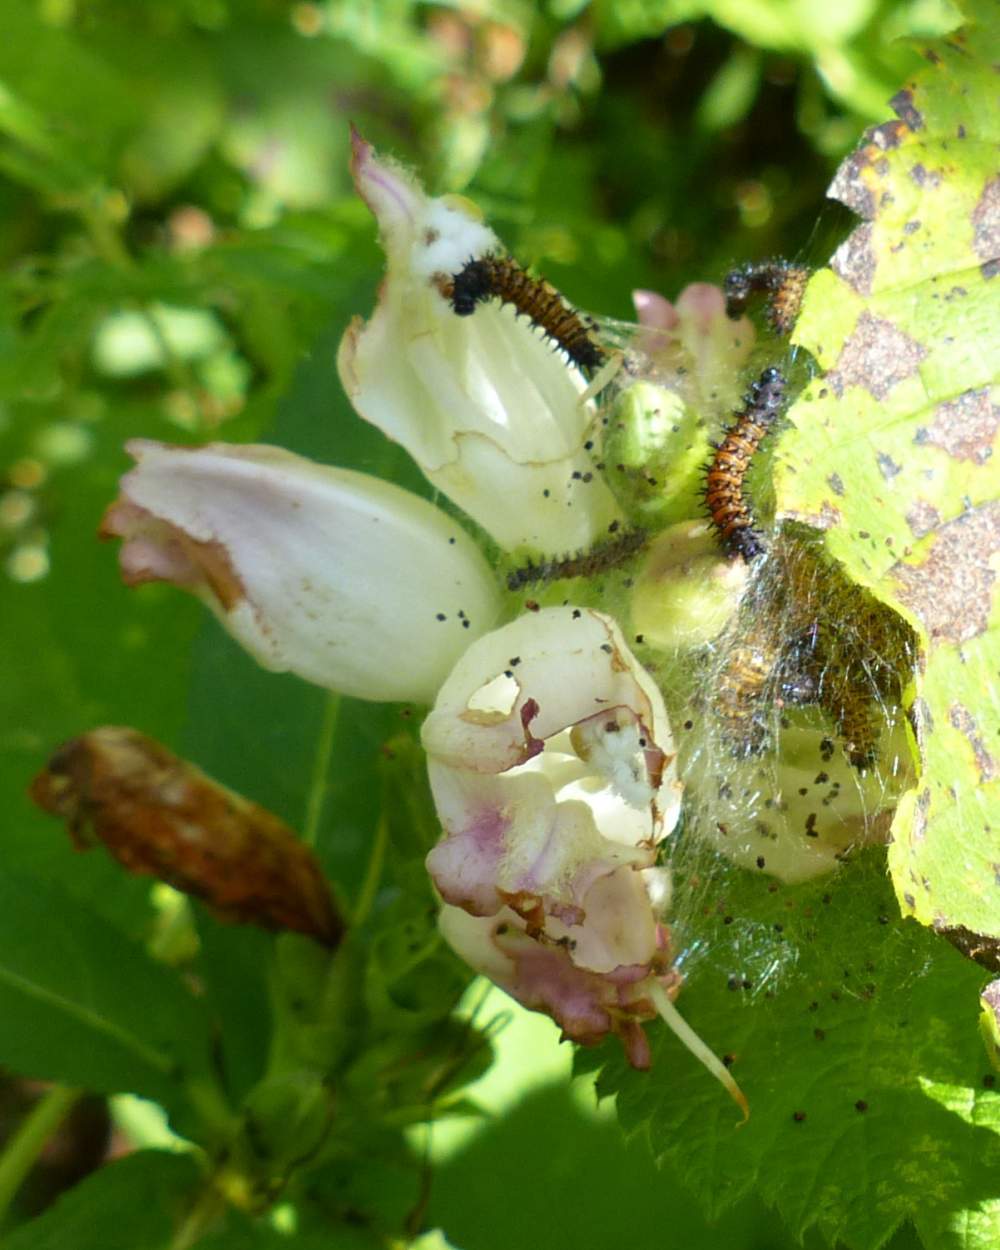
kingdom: Animalia
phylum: Arthropoda
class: Insecta
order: Lepidoptera
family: Nymphalidae
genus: Euphydryas
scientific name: Euphydryas phaeton
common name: Baltimore checkerspot
